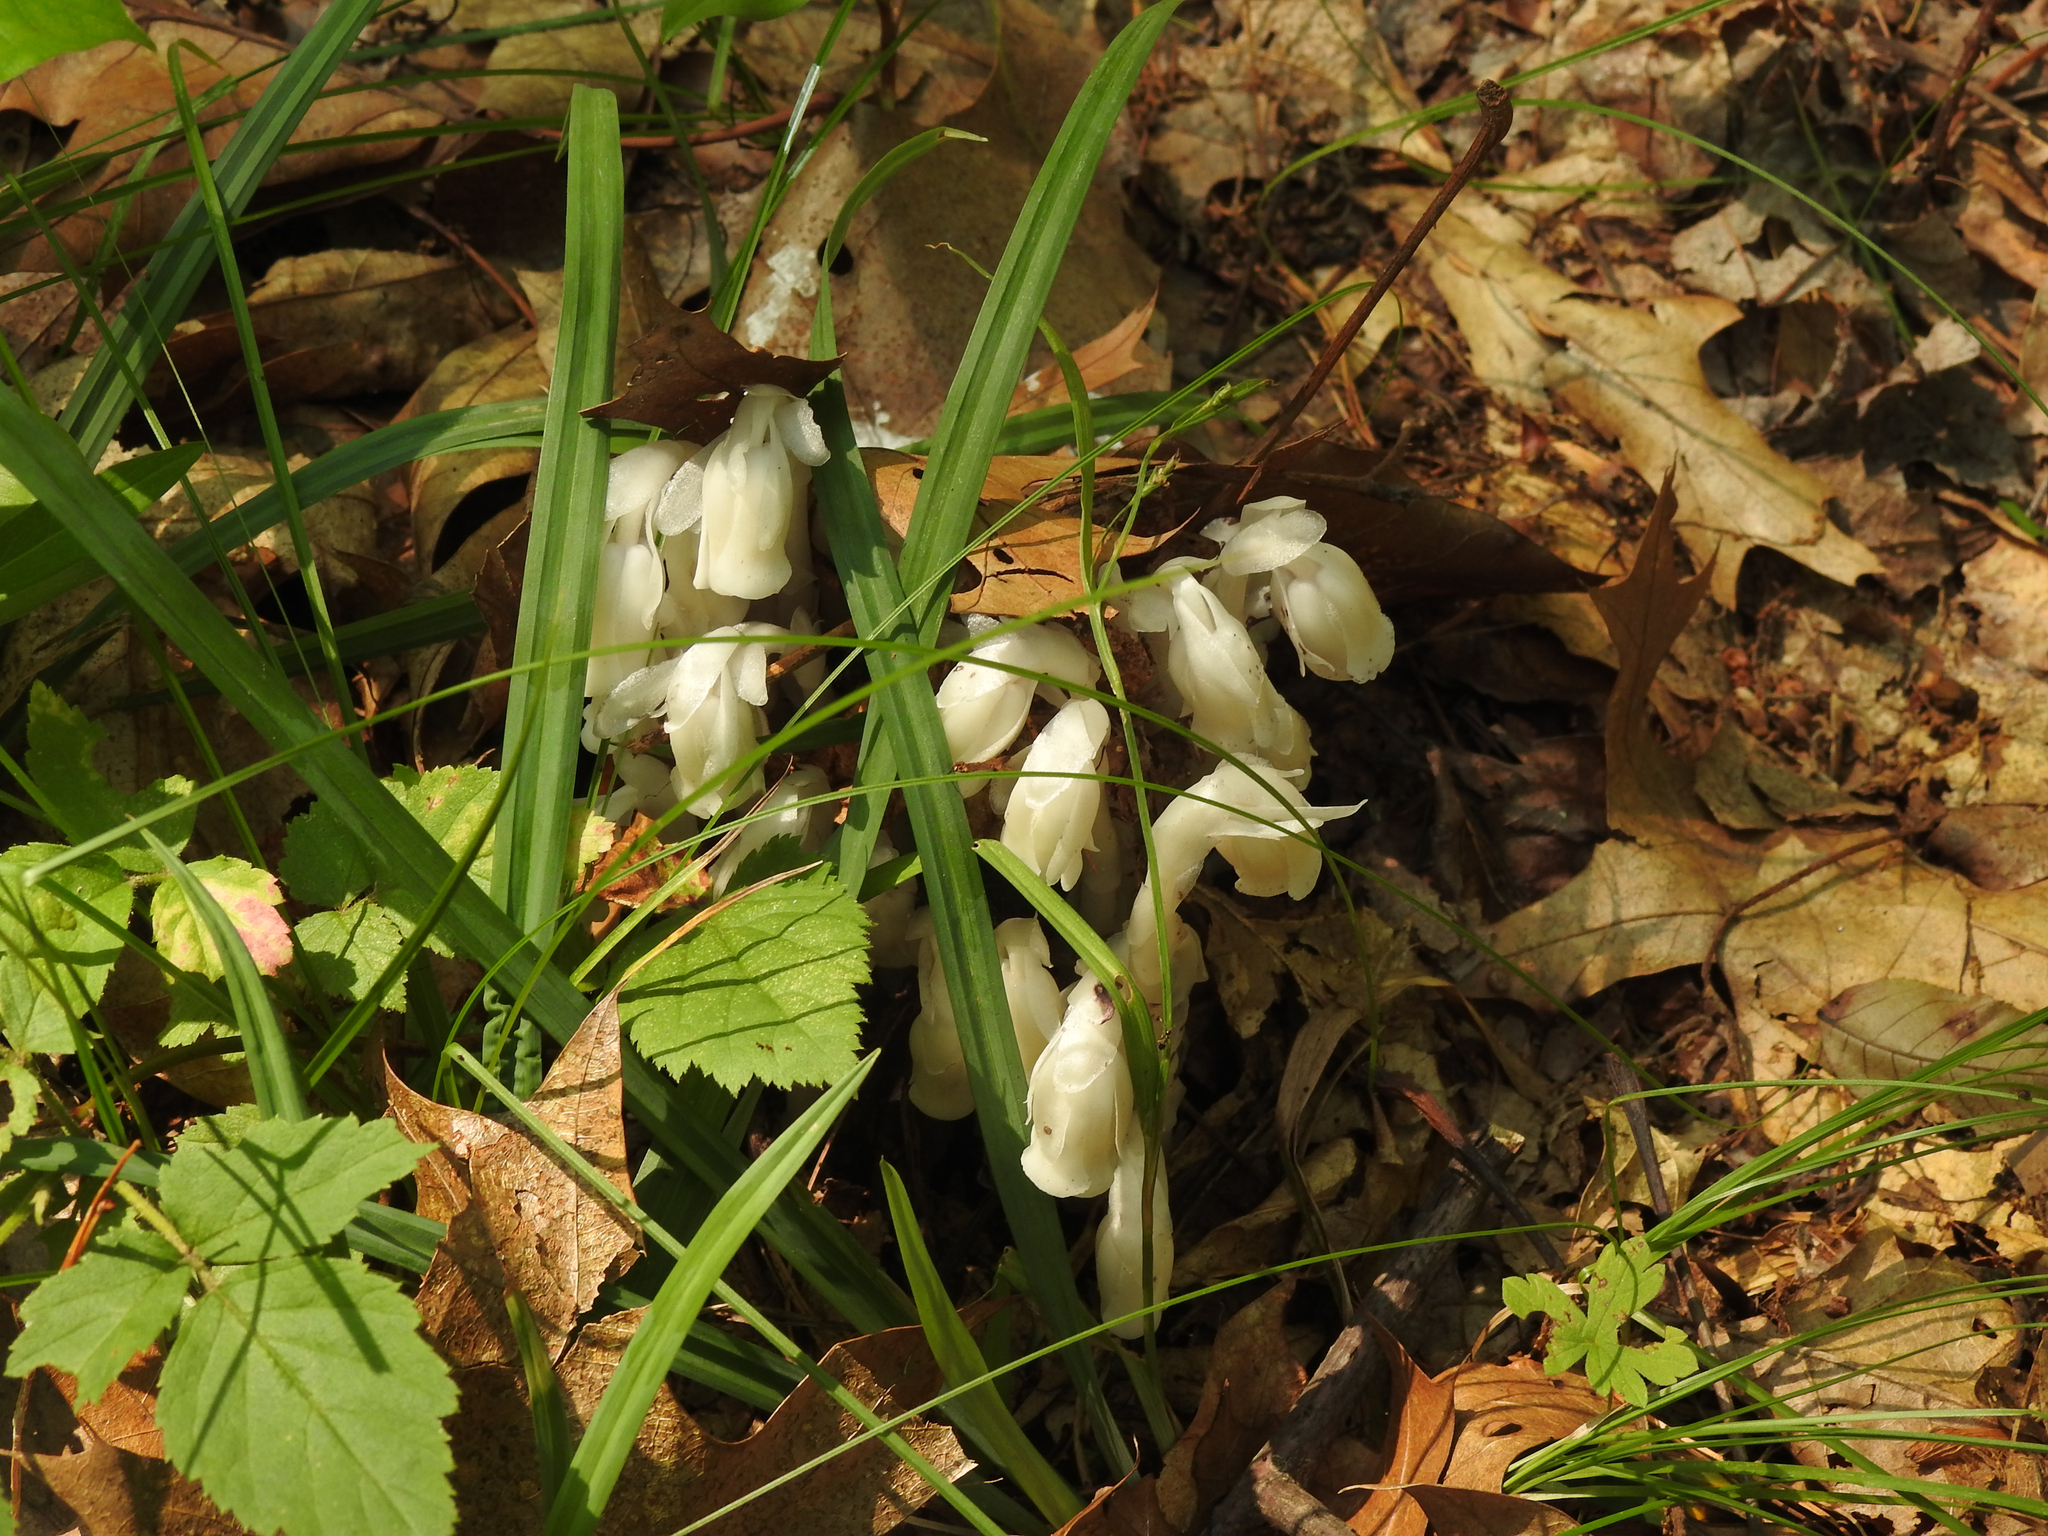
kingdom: Plantae
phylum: Tracheophyta
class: Magnoliopsida
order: Ericales
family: Ericaceae
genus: Monotropa
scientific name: Monotropa uniflora
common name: Convulsion root
